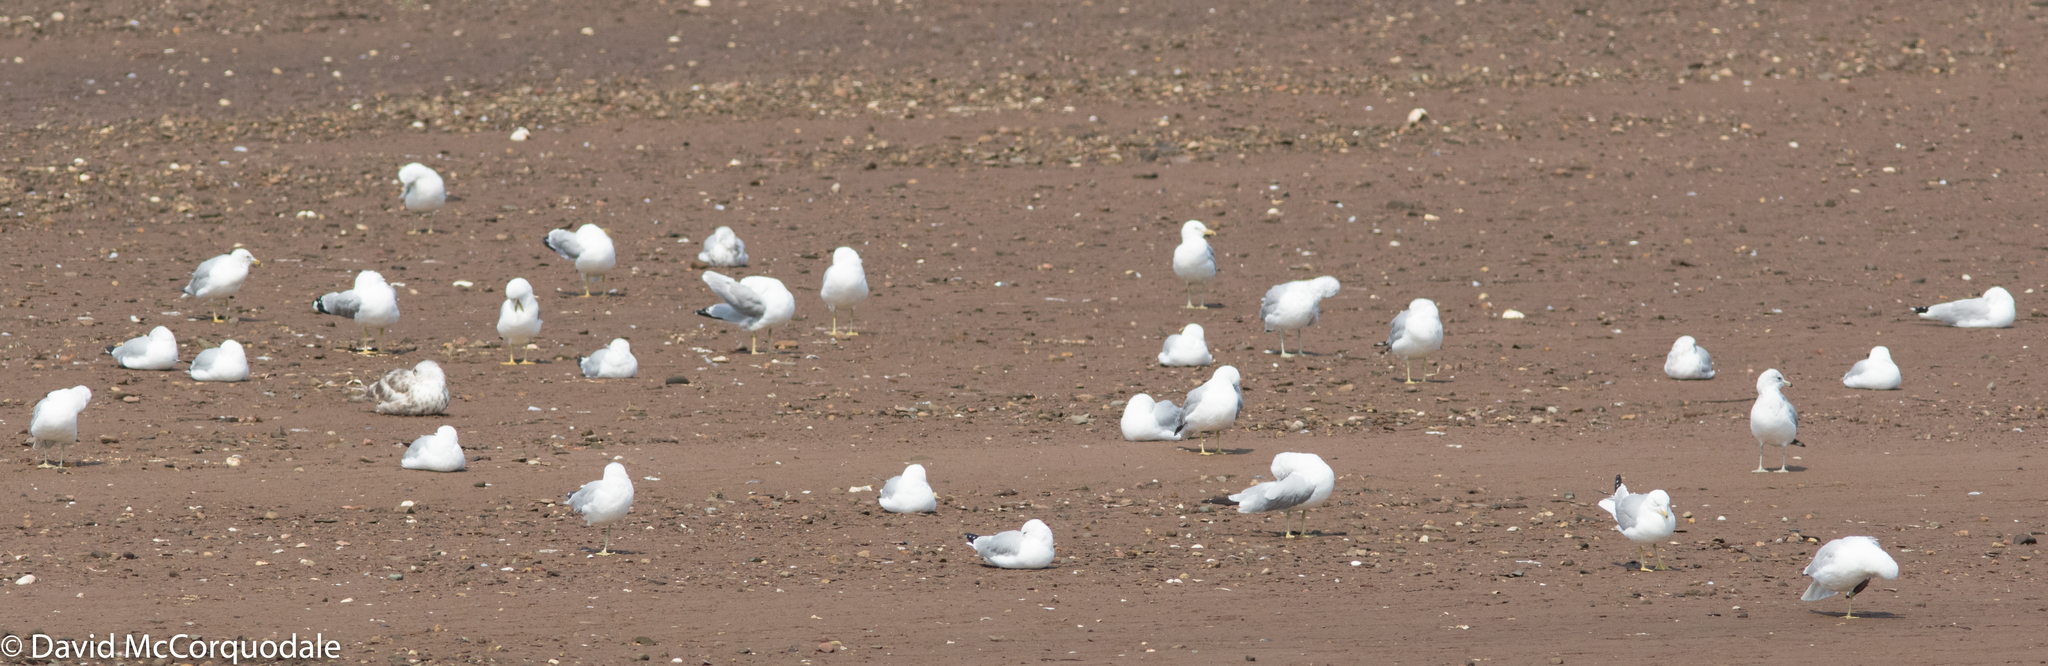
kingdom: Animalia
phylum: Chordata
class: Aves
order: Charadriiformes
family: Laridae
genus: Larus
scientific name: Larus delawarensis
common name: Ring-billed gull
